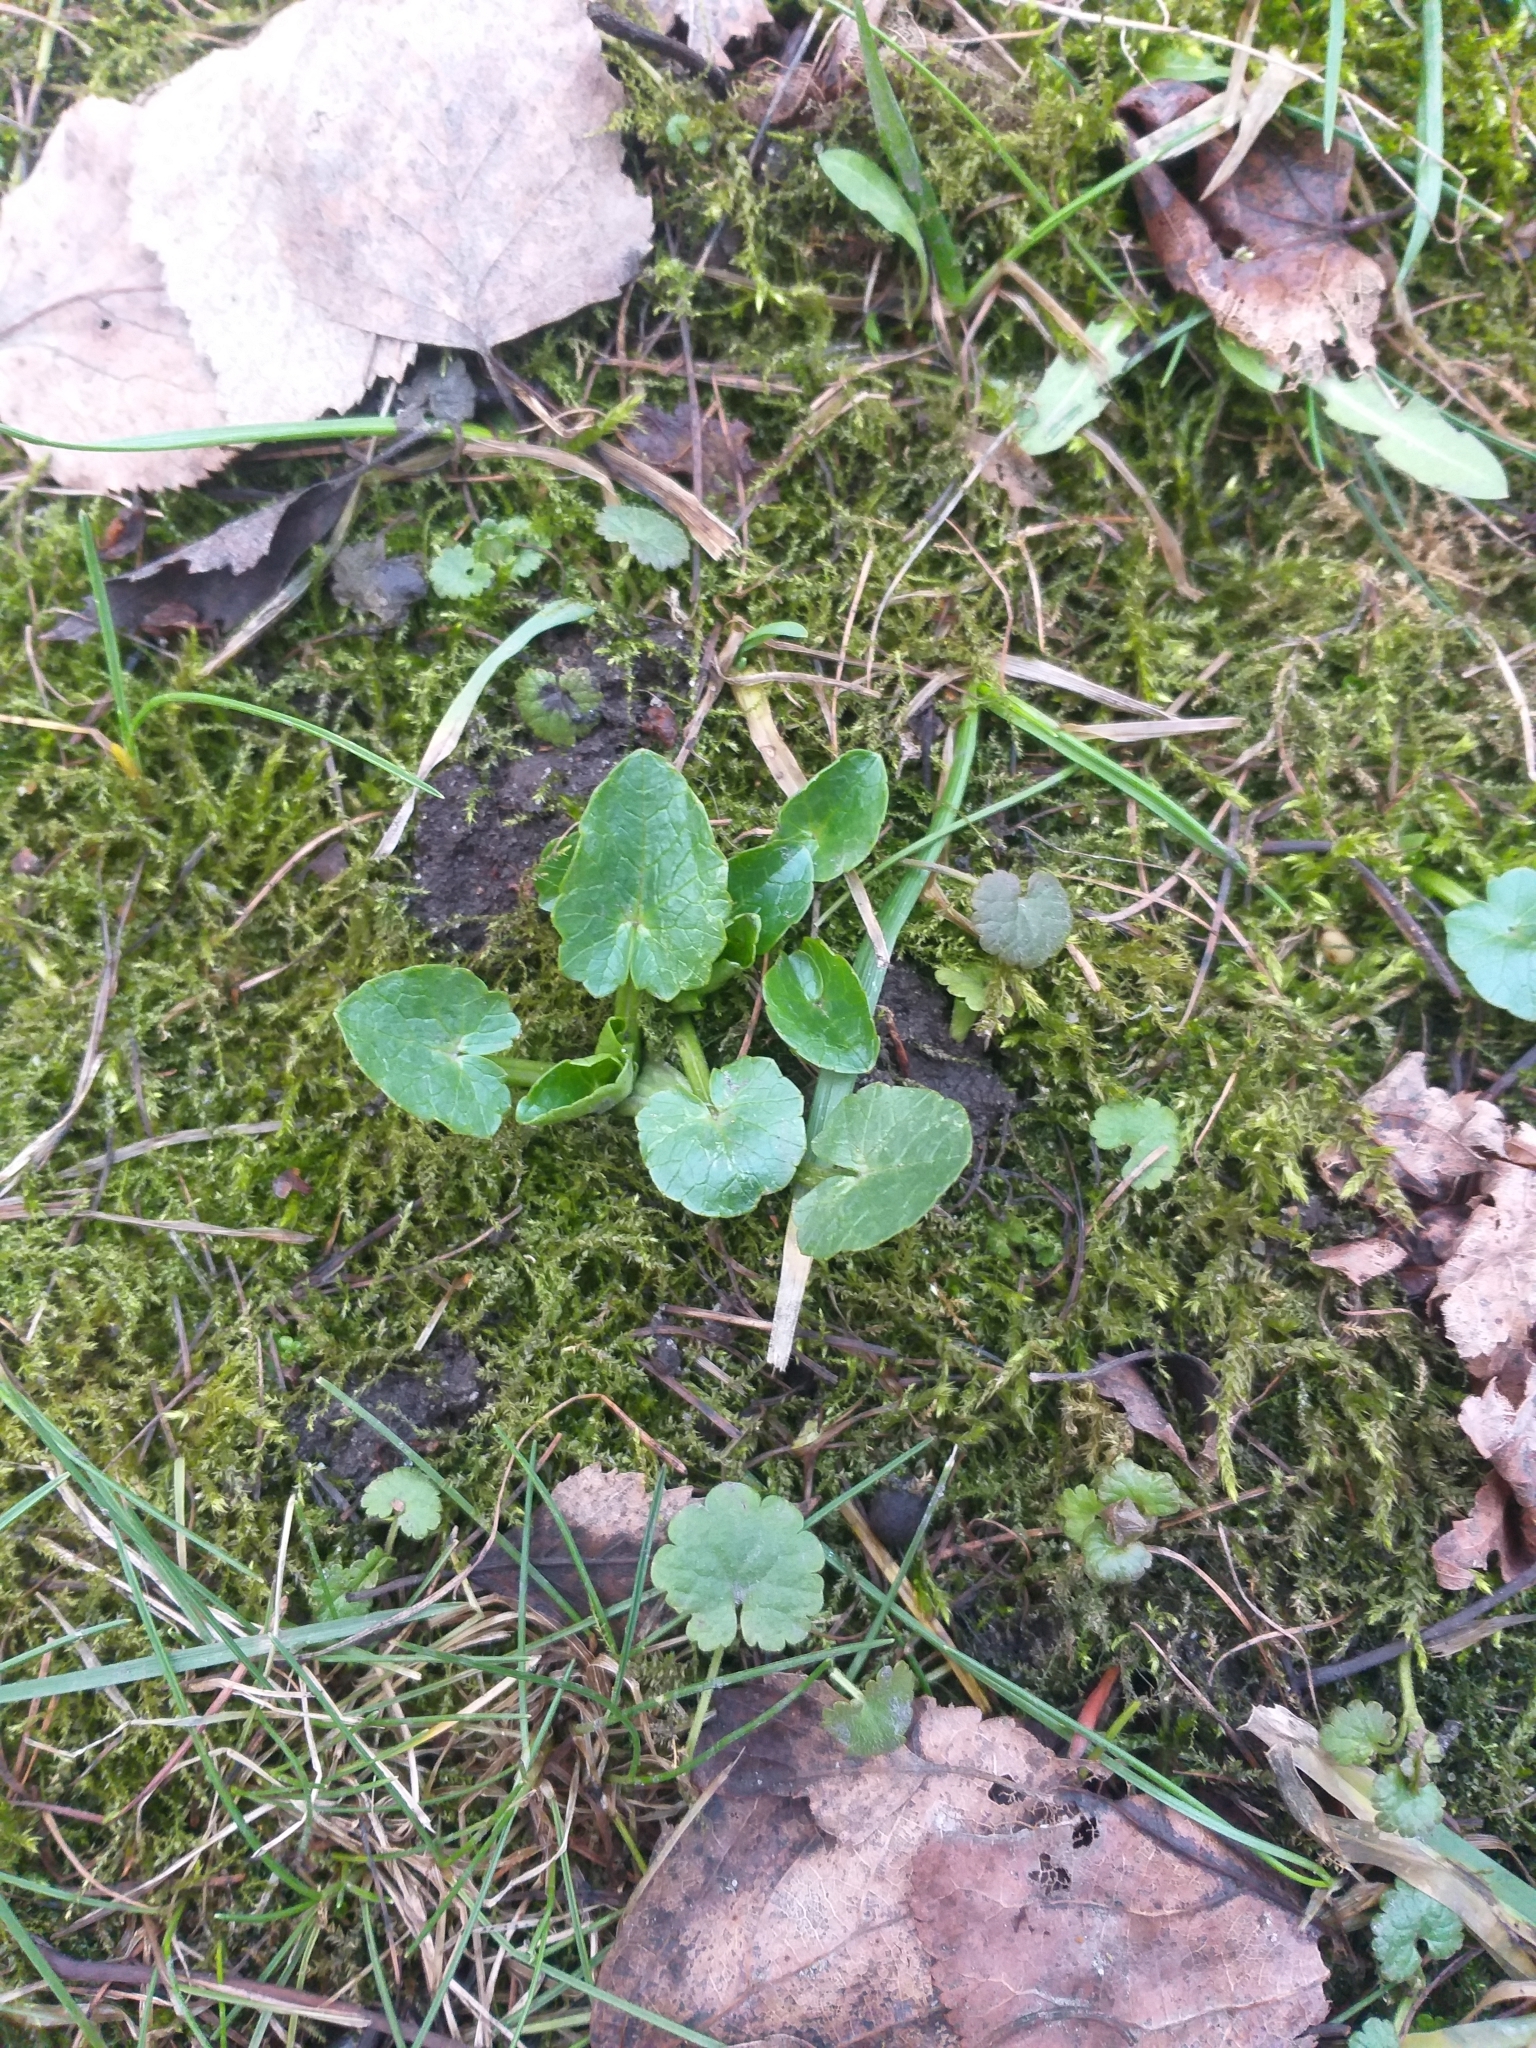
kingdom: Plantae
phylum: Tracheophyta
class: Magnoliopsida
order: Ranunculales
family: Ranunculaceae
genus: Ficaria
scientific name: Ficaria verna
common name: Lesser celandine
